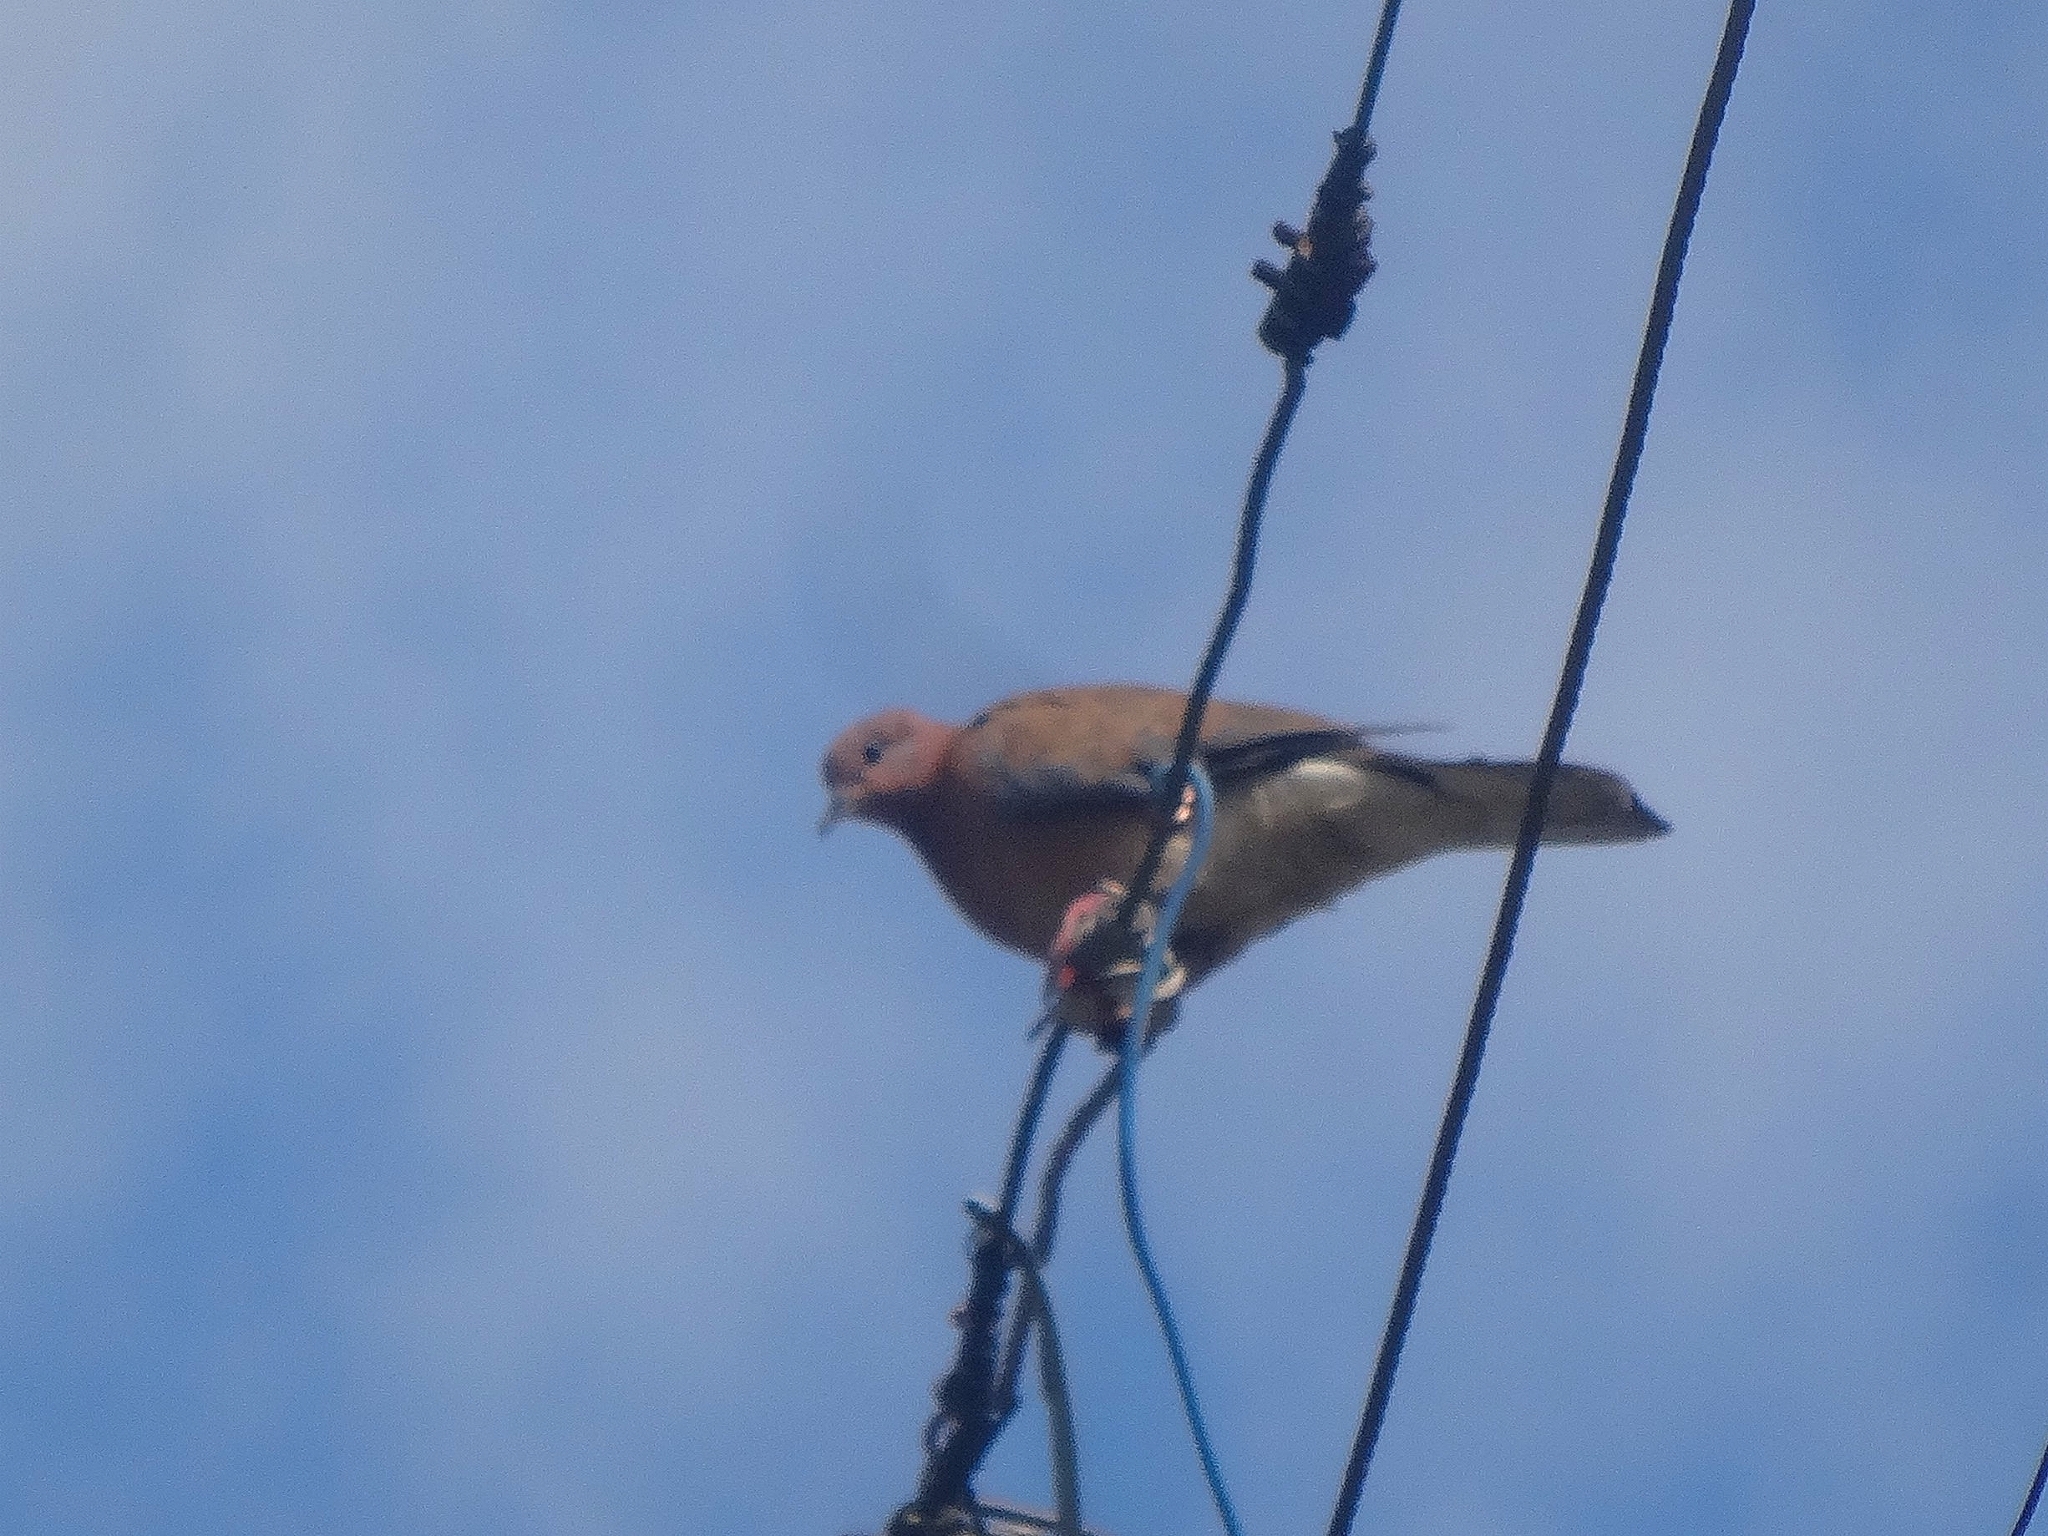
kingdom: Animalia
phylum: Chordata
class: Aves
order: Columbiformes
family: Columbidae
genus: Spilopelia
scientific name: Spilopelia senegalensis
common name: Laughing dove
